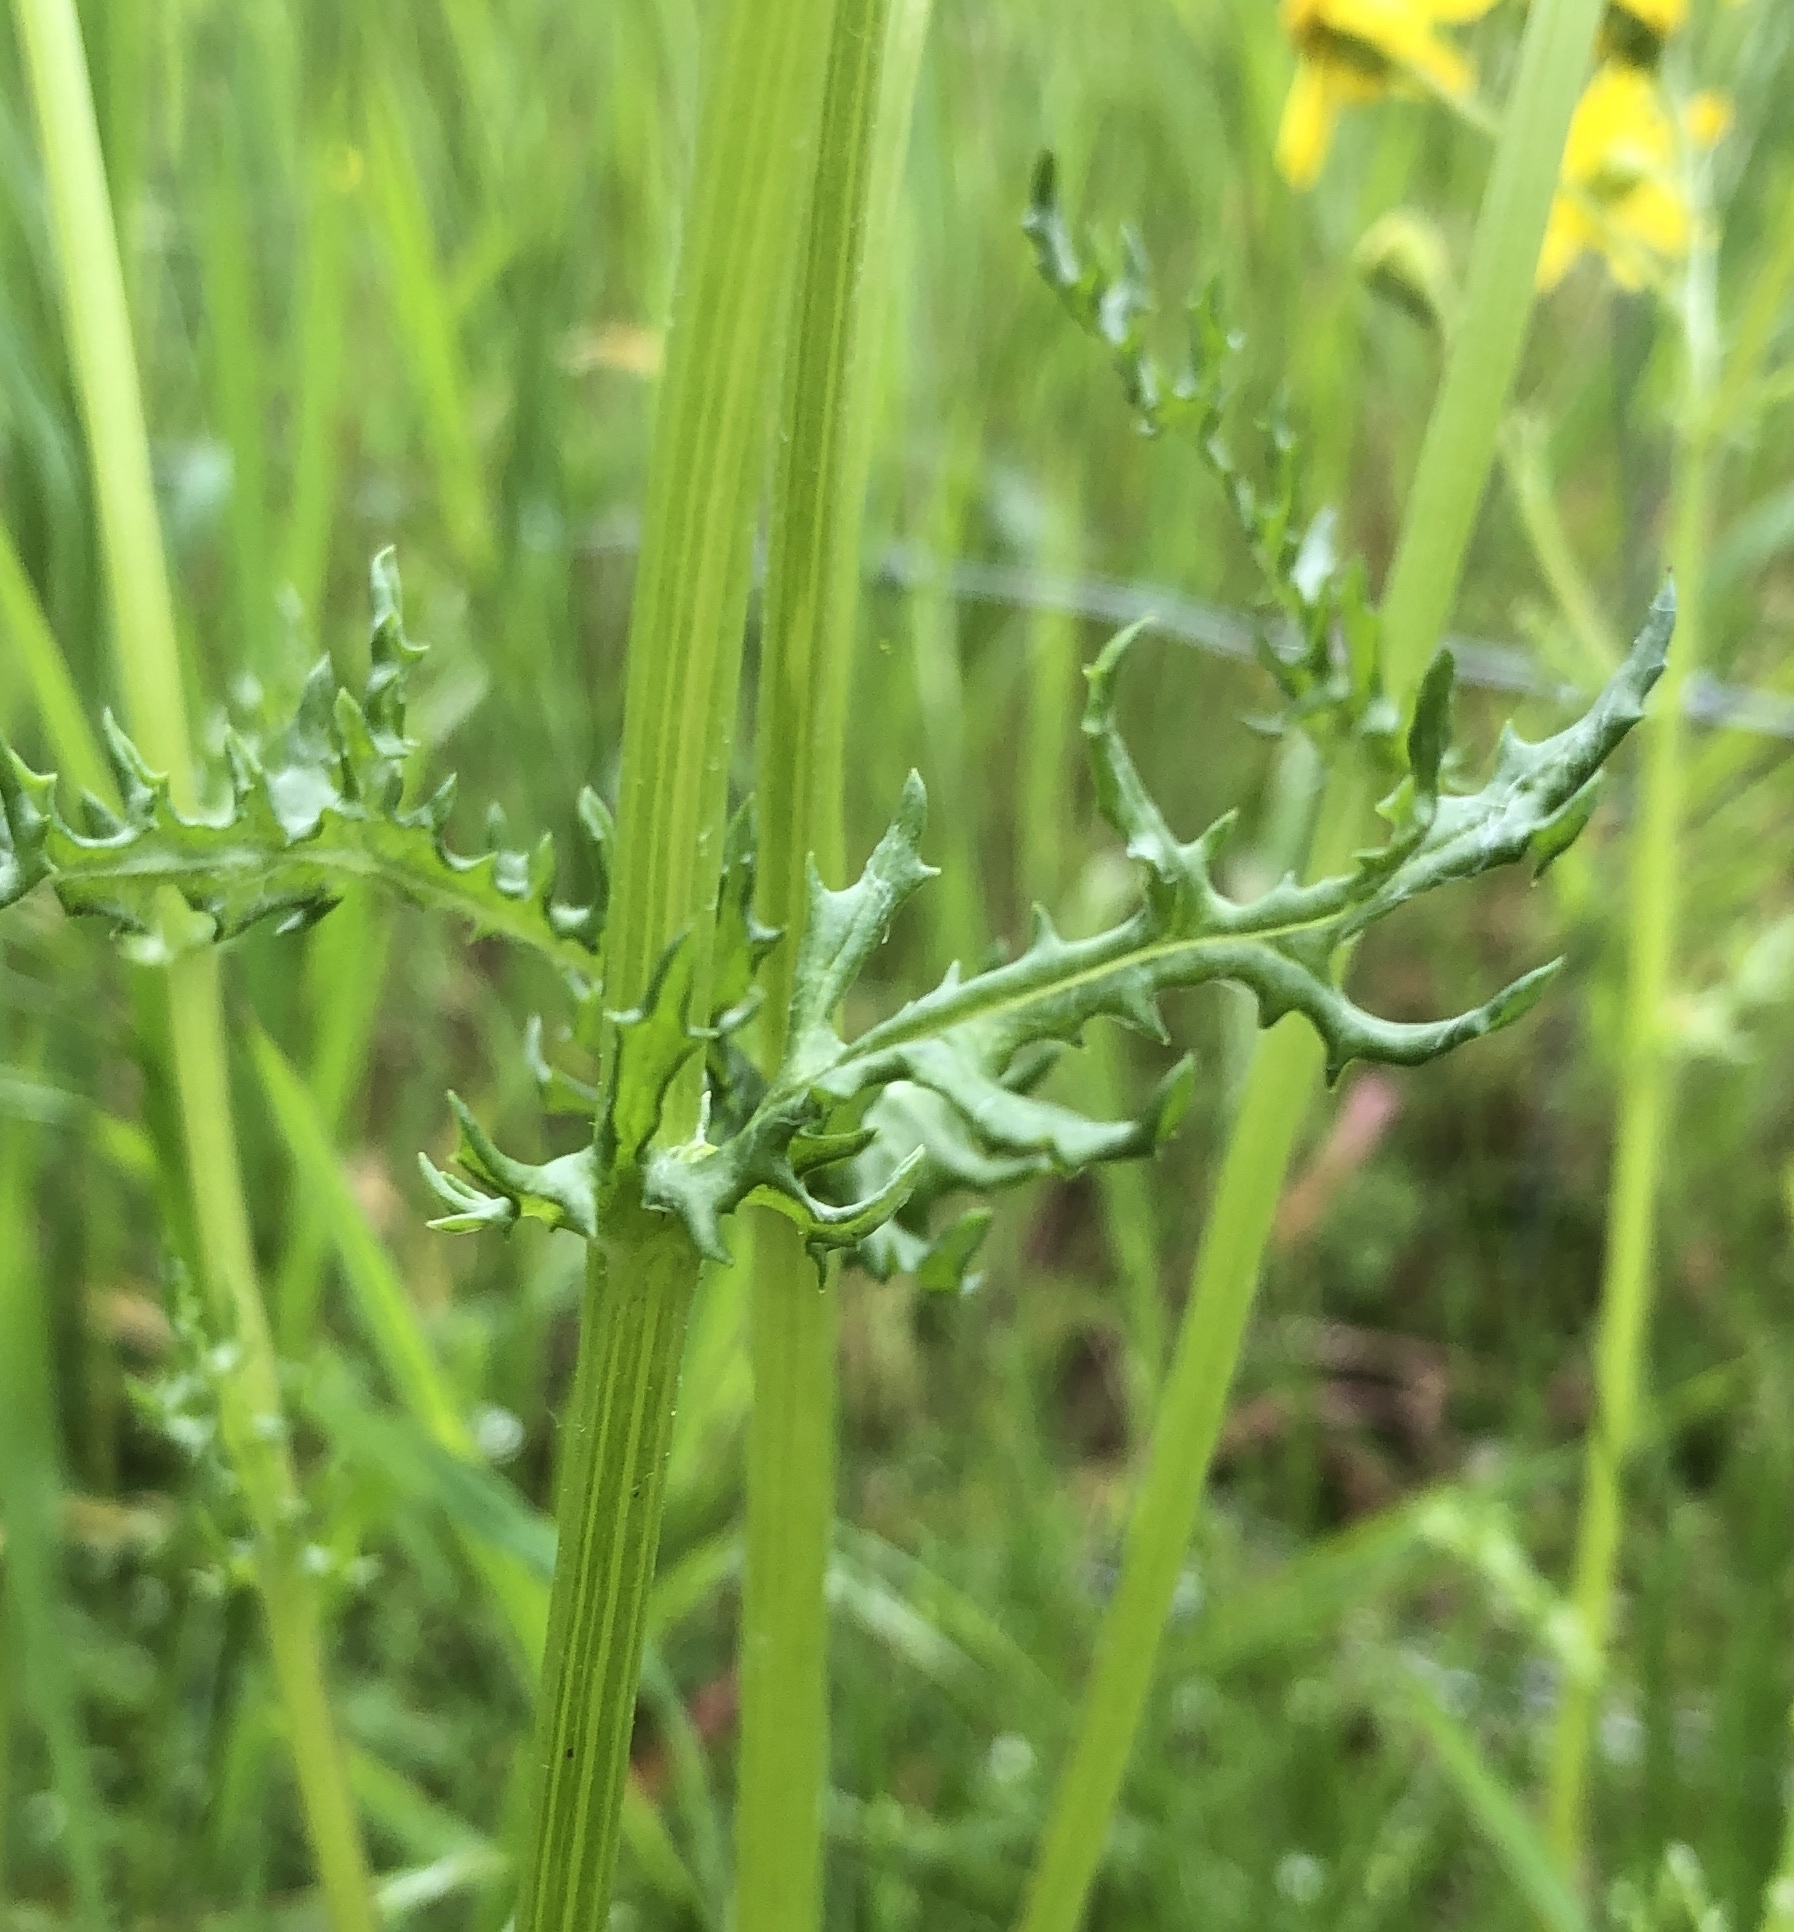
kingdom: Plantae
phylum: Tracheophyta
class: Magnoliopsida
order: Asterales
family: Asteraceae
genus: Senecio
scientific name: Senecio vernalis
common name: Eastern groundsel
